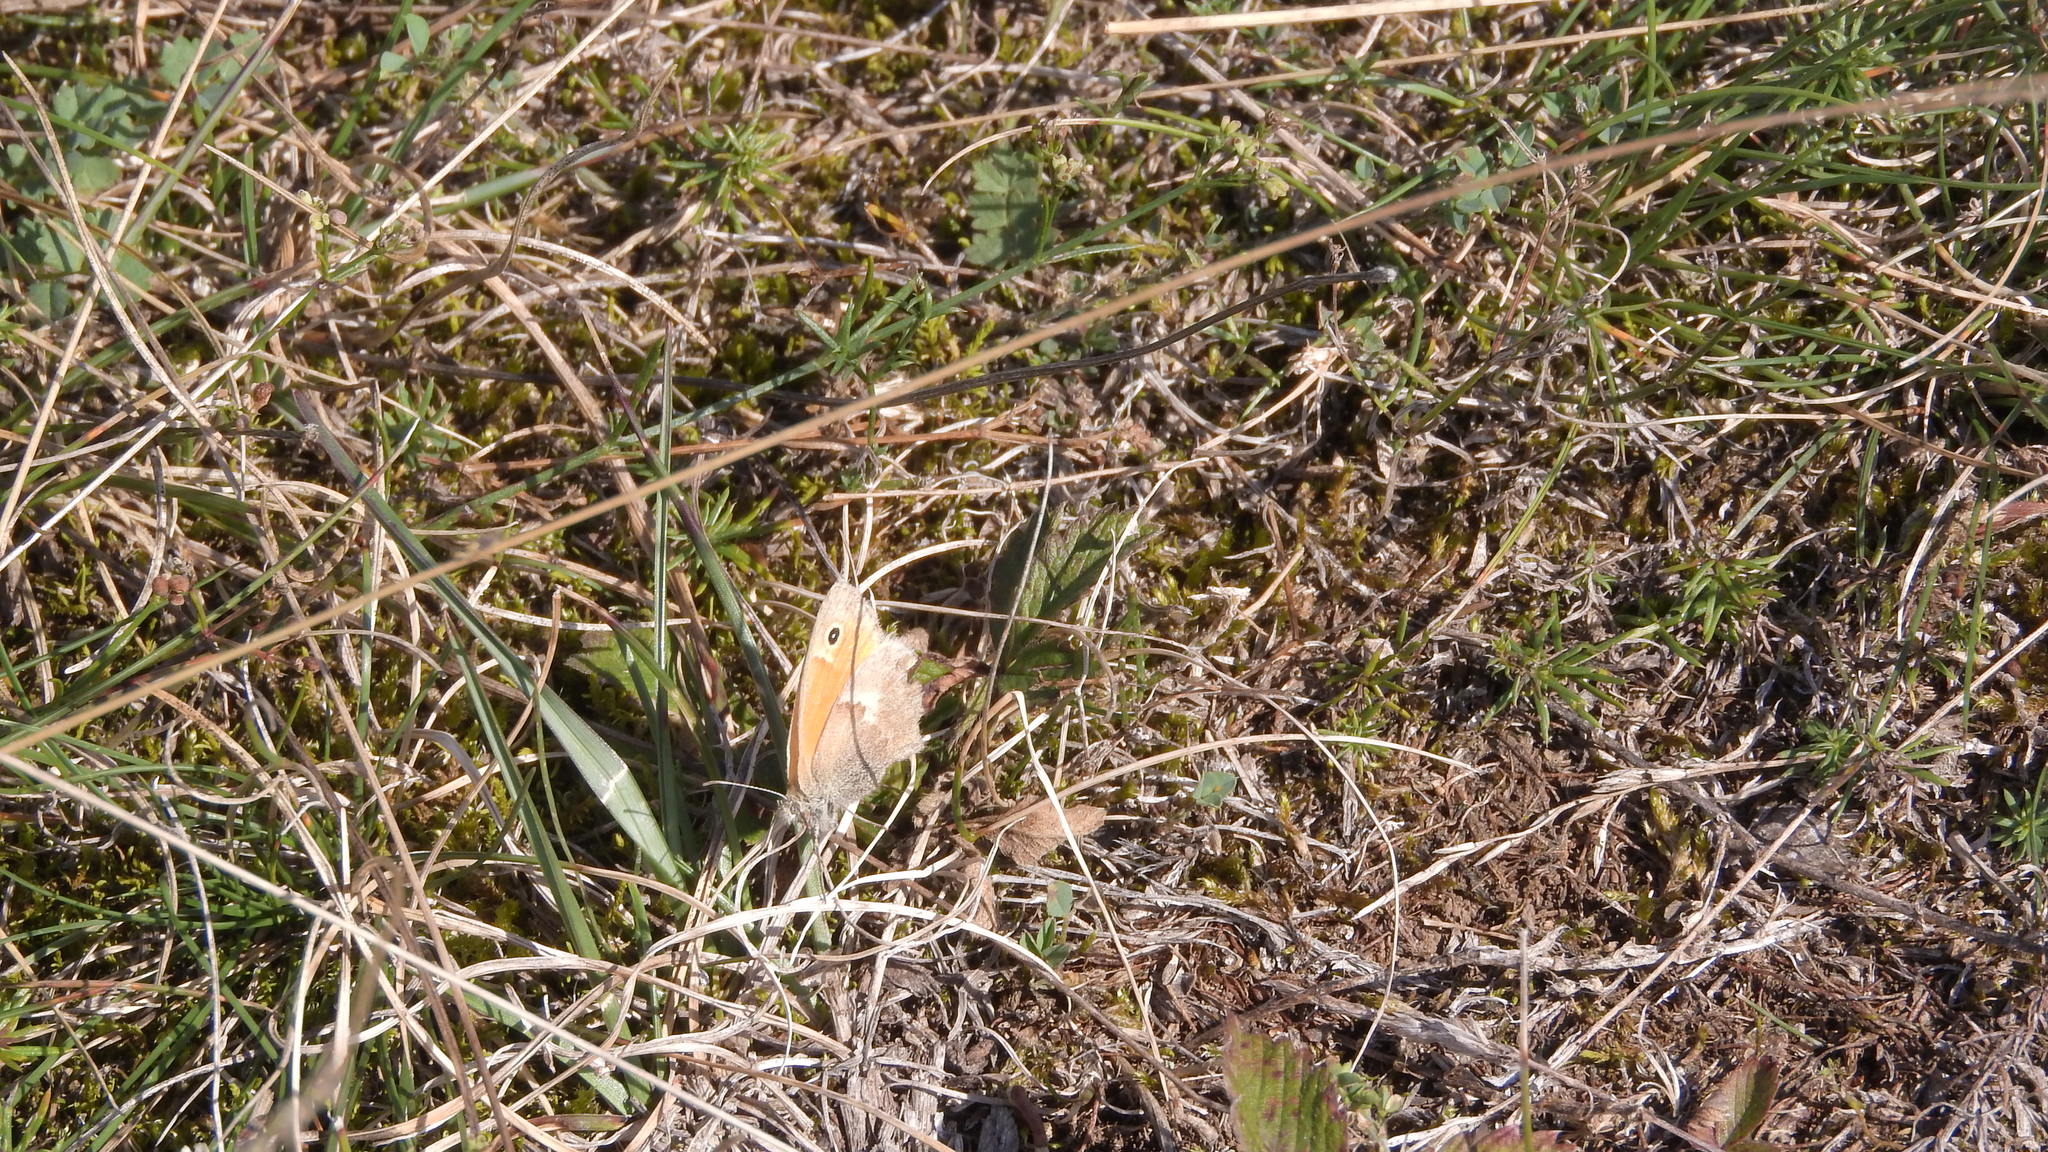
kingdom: Animalia
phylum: Arthropoda
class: Insecta
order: Lepidoptera
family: Nymphalidae
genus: Coenonympha
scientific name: Coenonympha pamphilus
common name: Small heath
